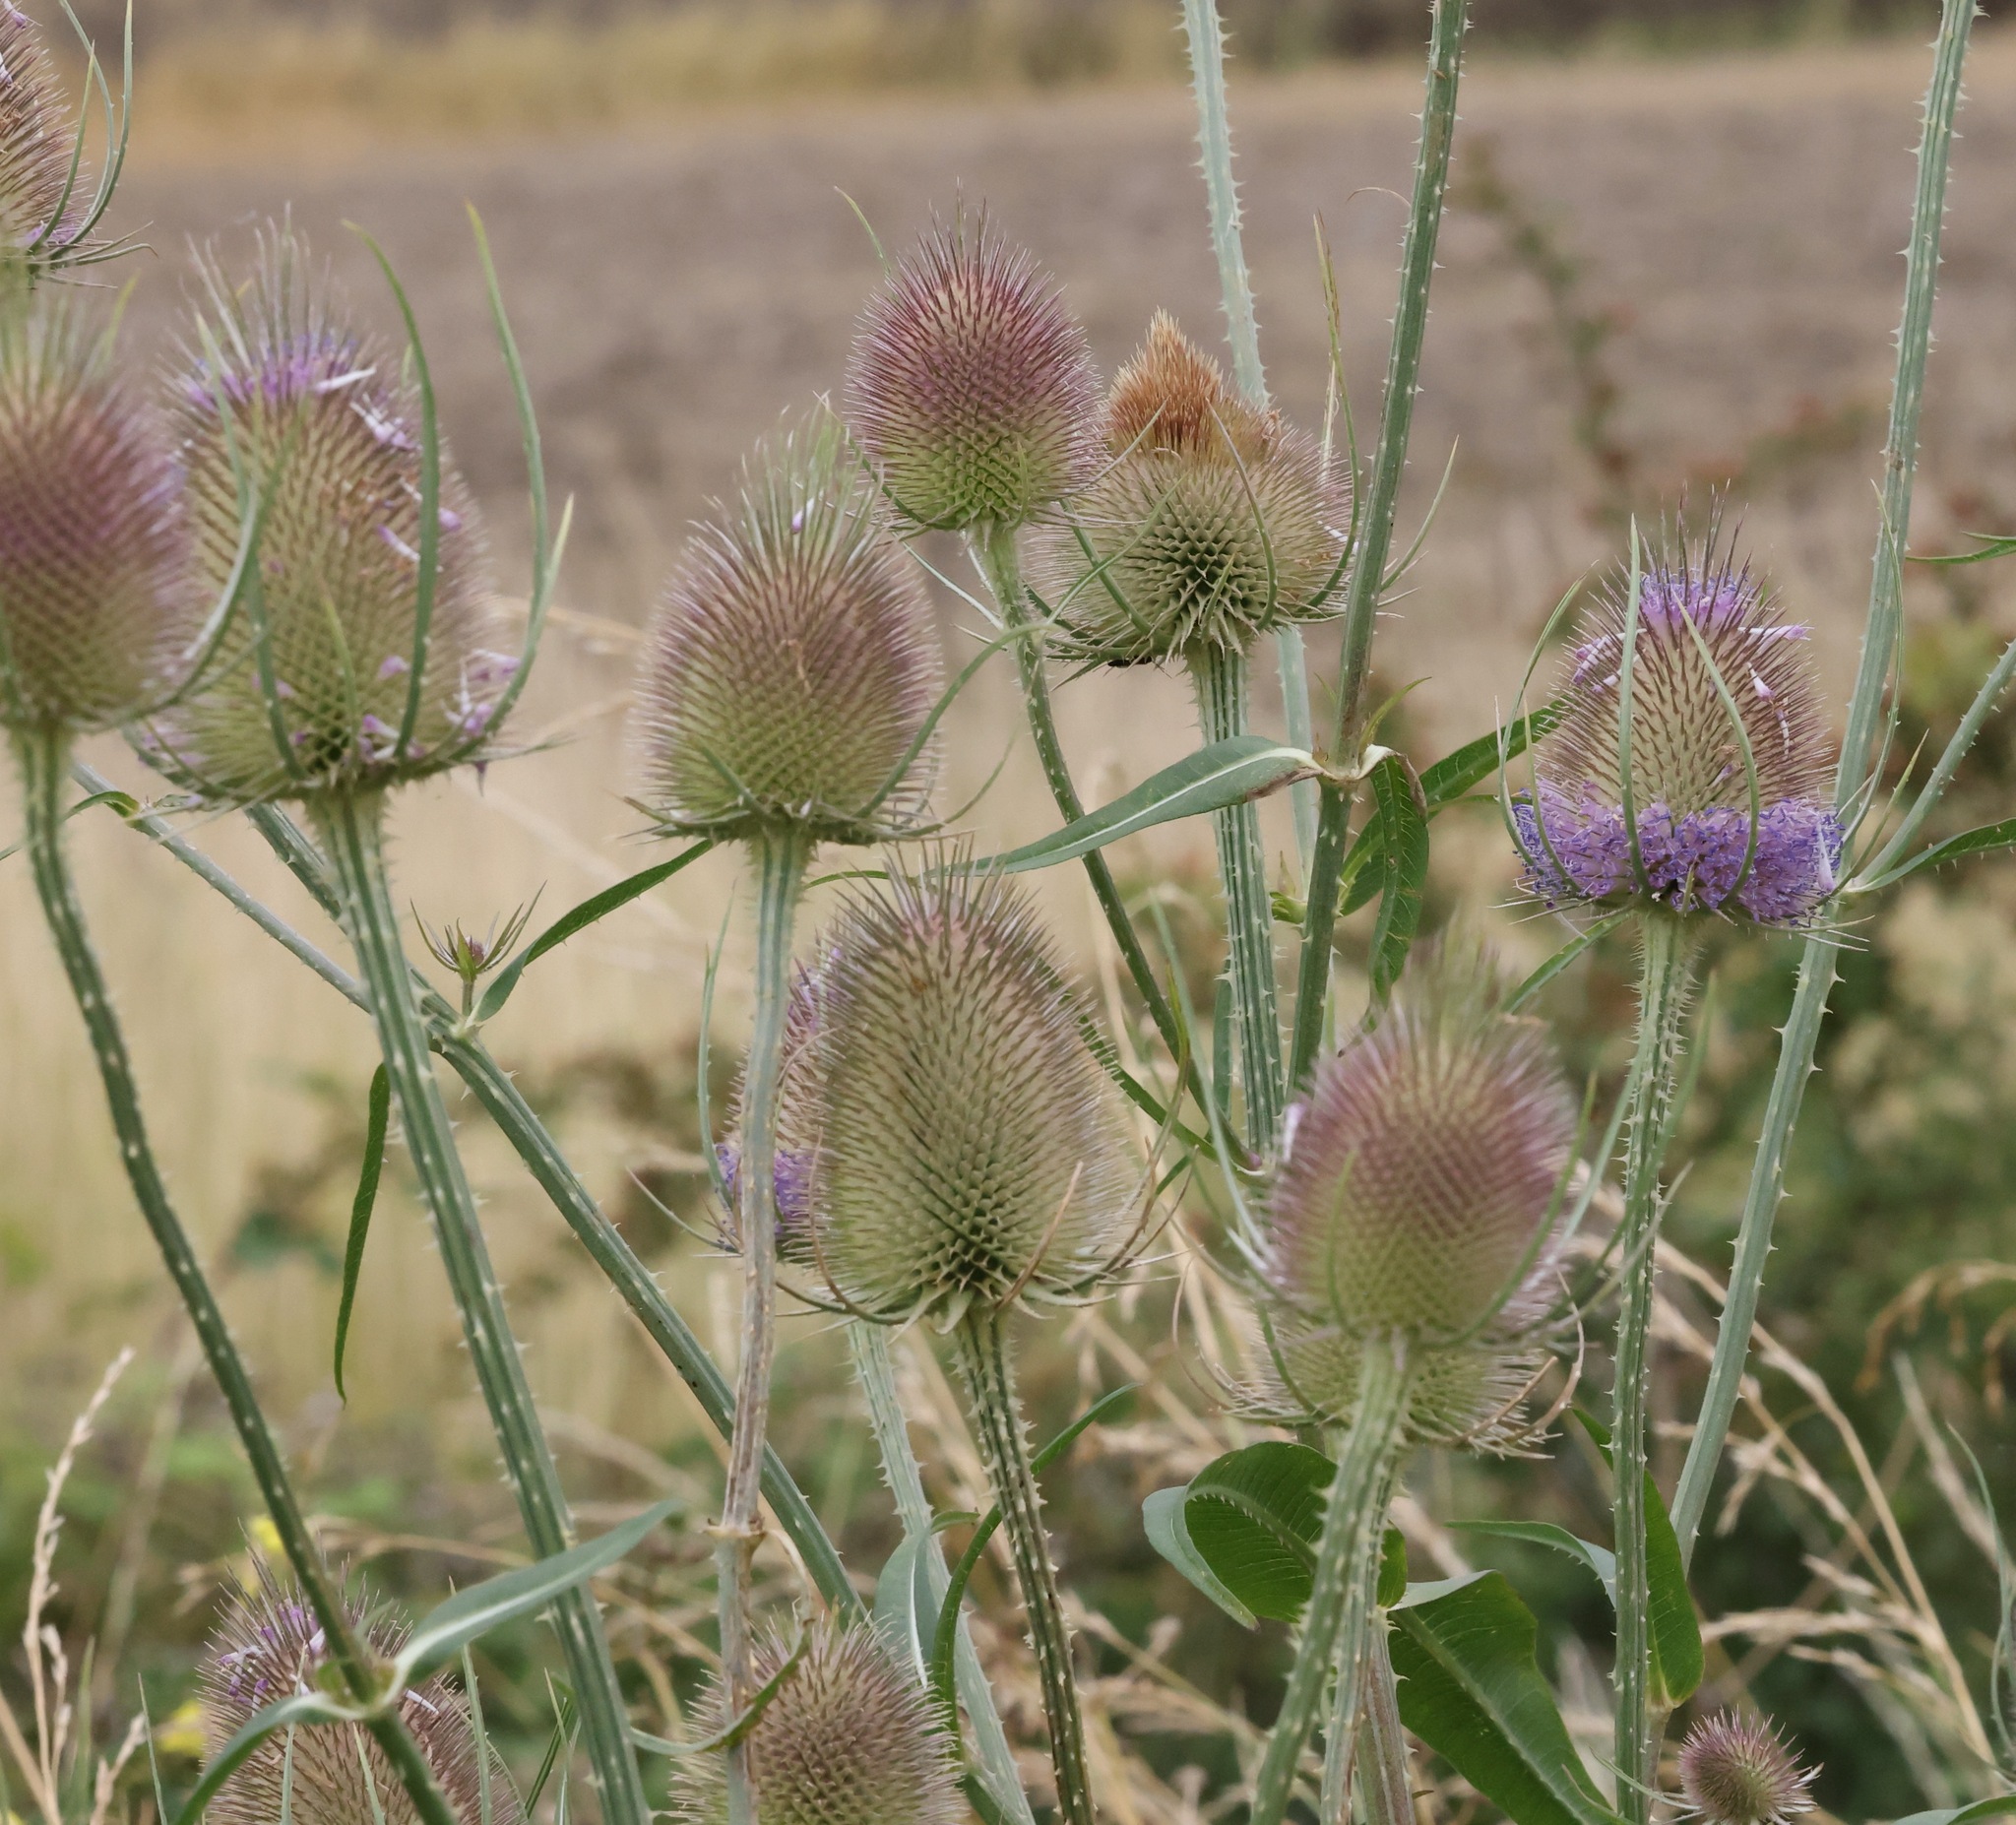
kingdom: Plantae
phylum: Tracheophyta
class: Magnoliopsida
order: Dipsacales
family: Caprifoliaceae
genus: Dipsacus
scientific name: Dipsacus fullonum
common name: Teasel
